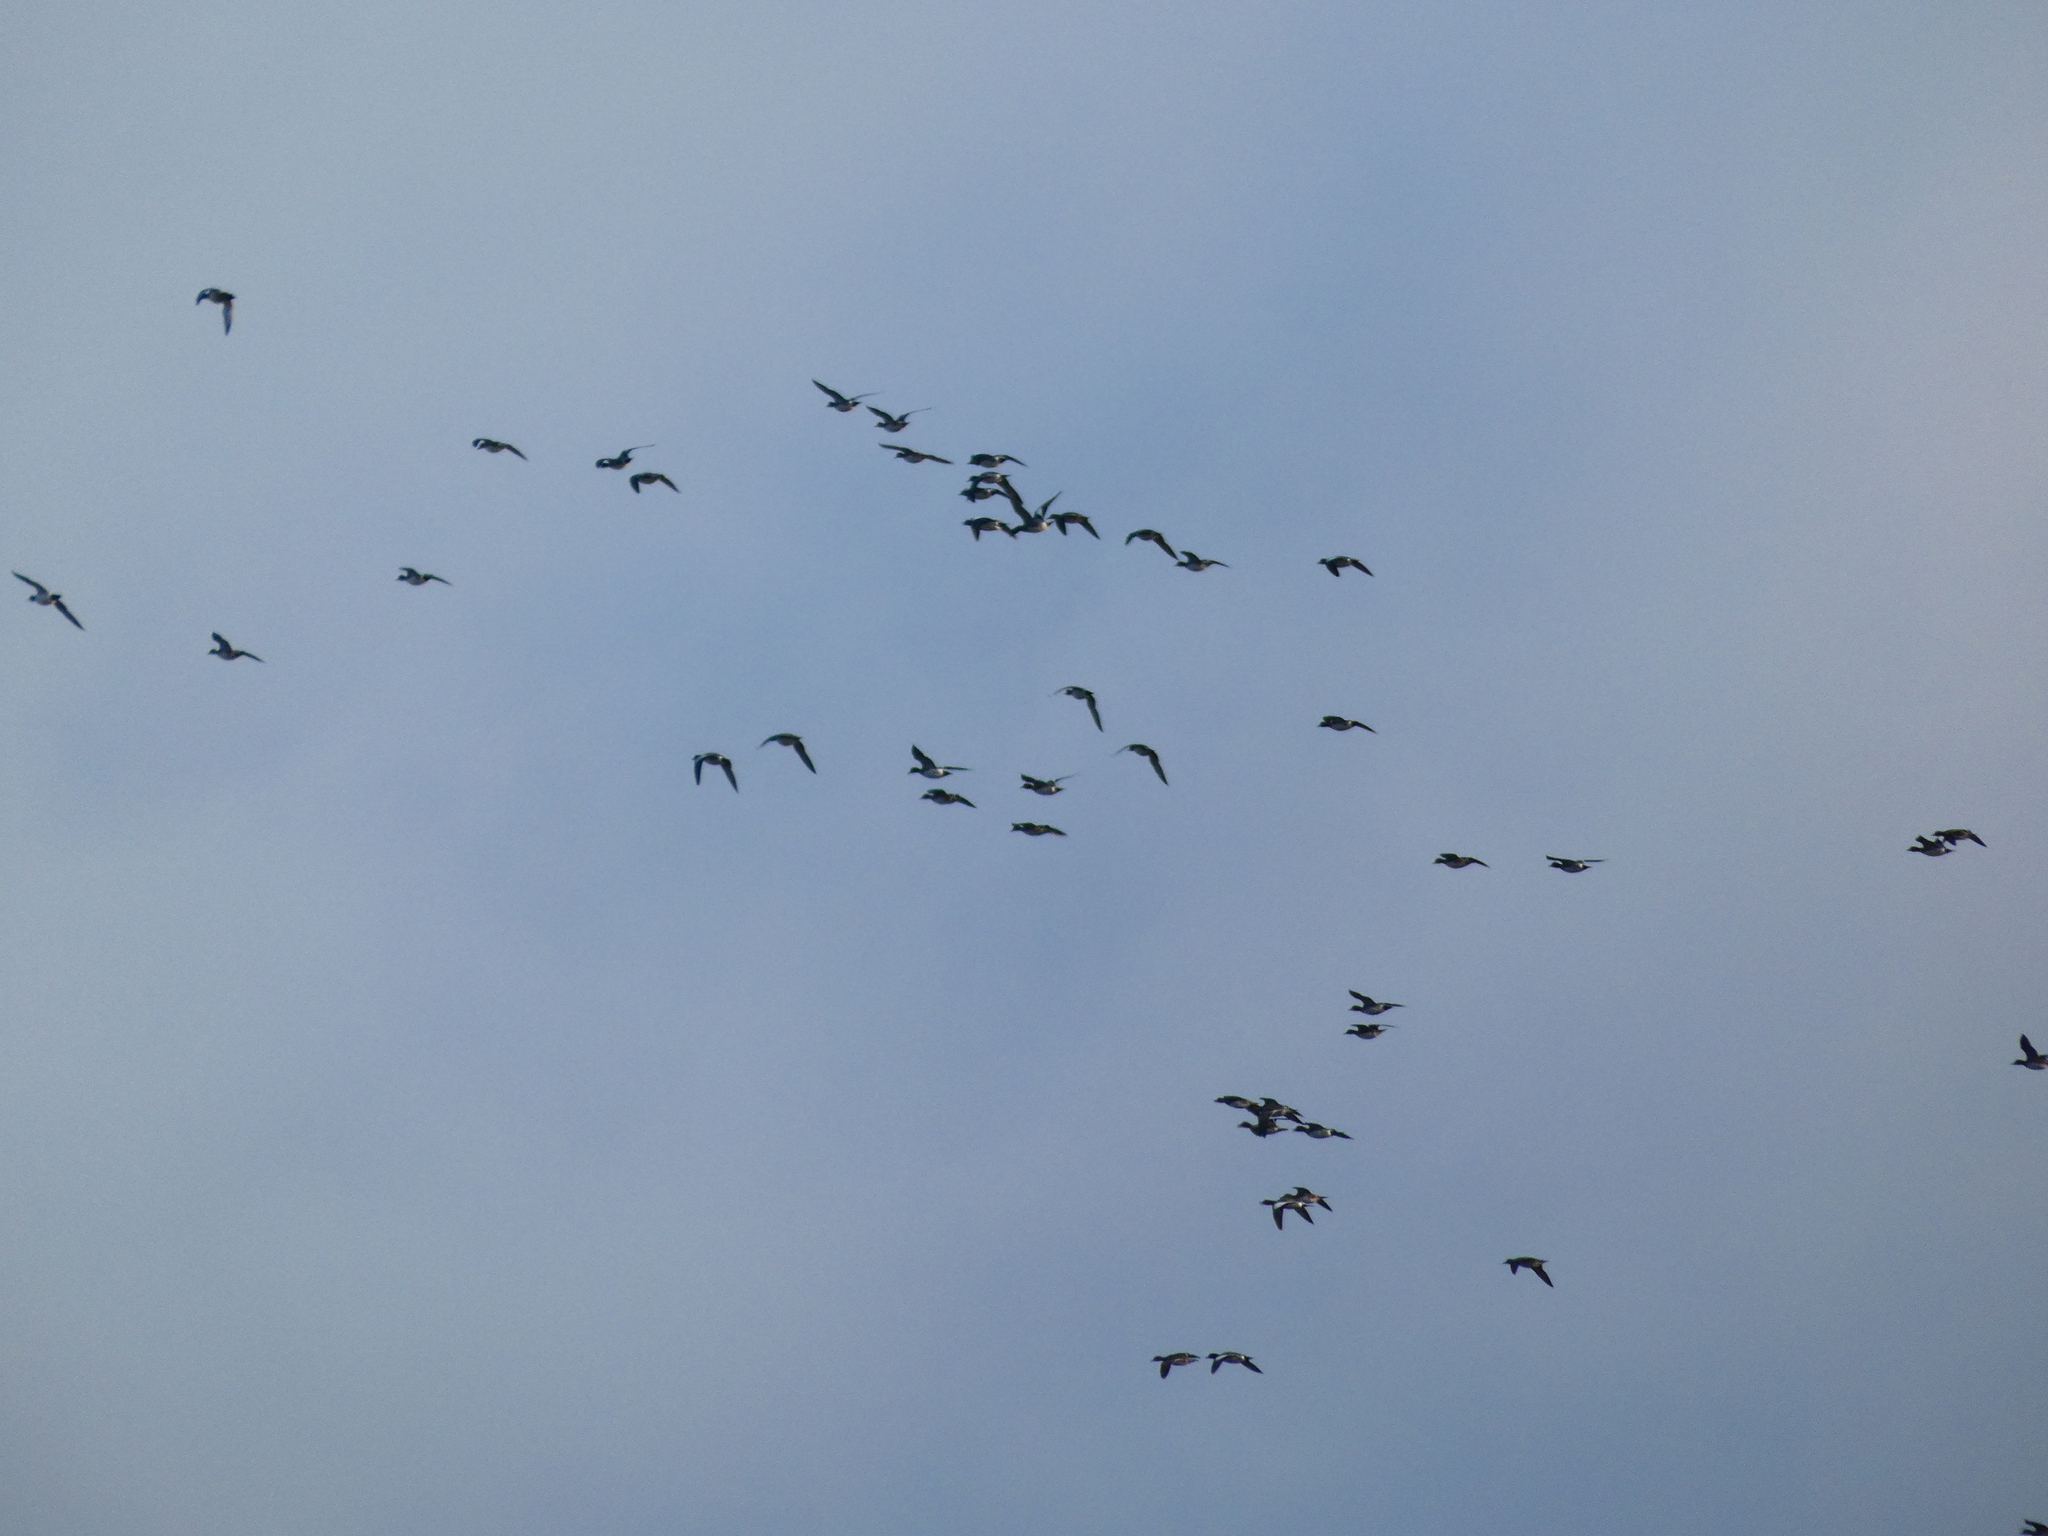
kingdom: Animalia
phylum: Chordata
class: Aves
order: Anseriformes
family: Anatidae
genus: Mareca
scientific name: Mareca penelope
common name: Eurasian wigeon
